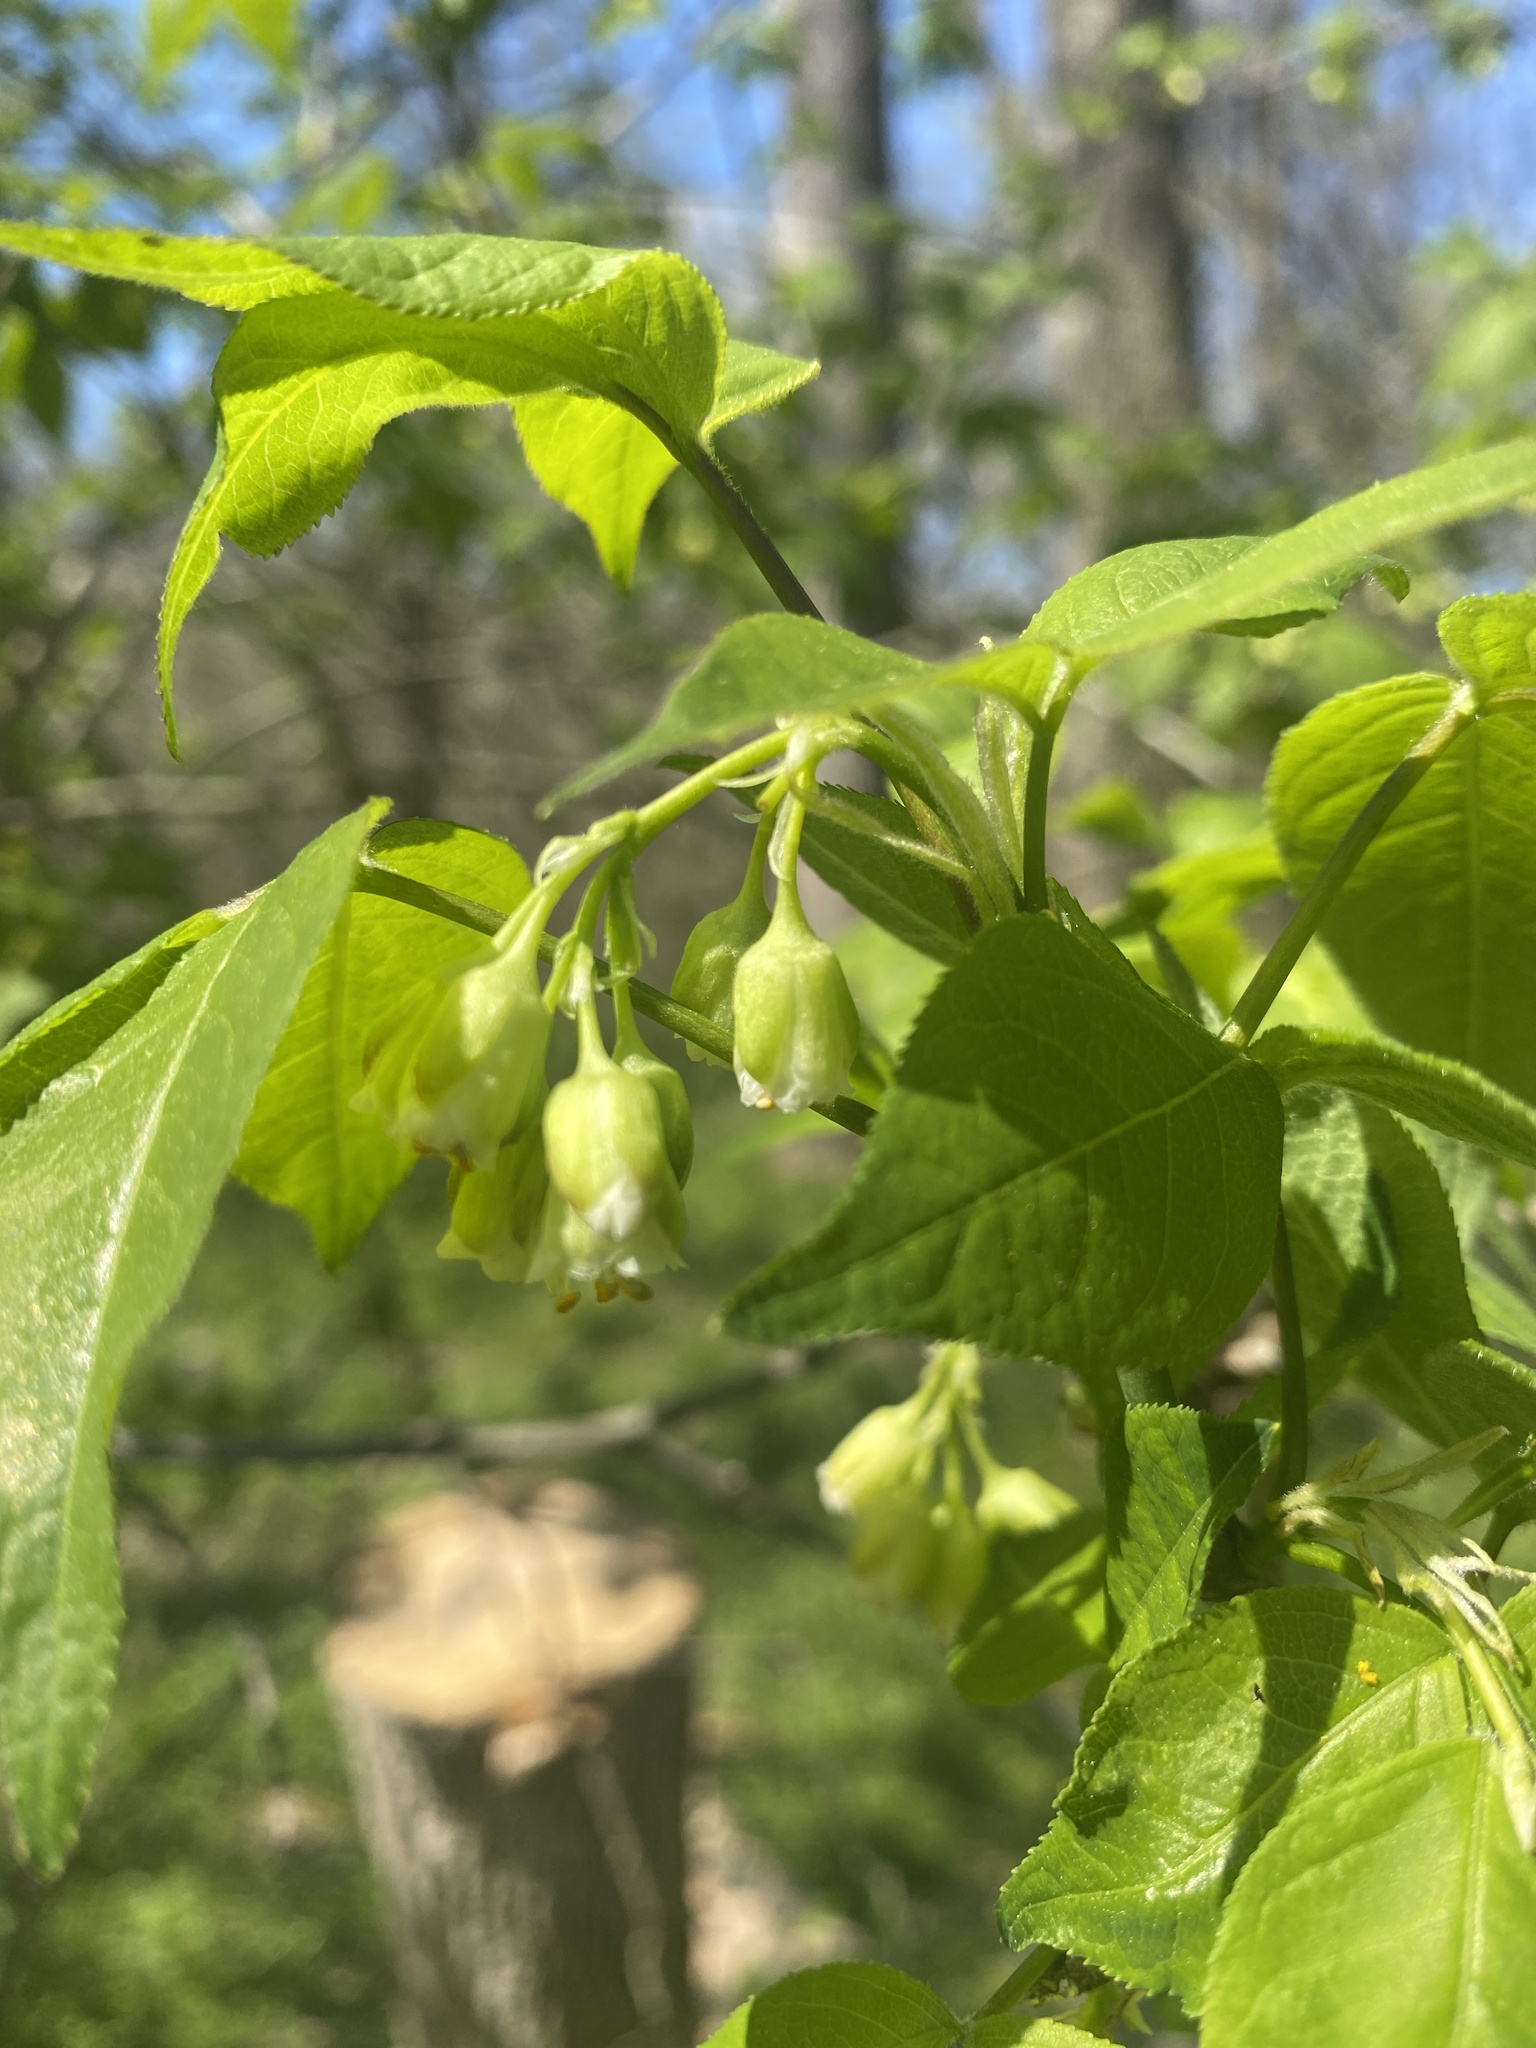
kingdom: Plantae
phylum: Tracheophyta
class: Magnoliopsida
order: Crossosomatales
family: Staphyleaceae
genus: Staphylea
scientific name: Staphylea trifolia
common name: American bladdernut
